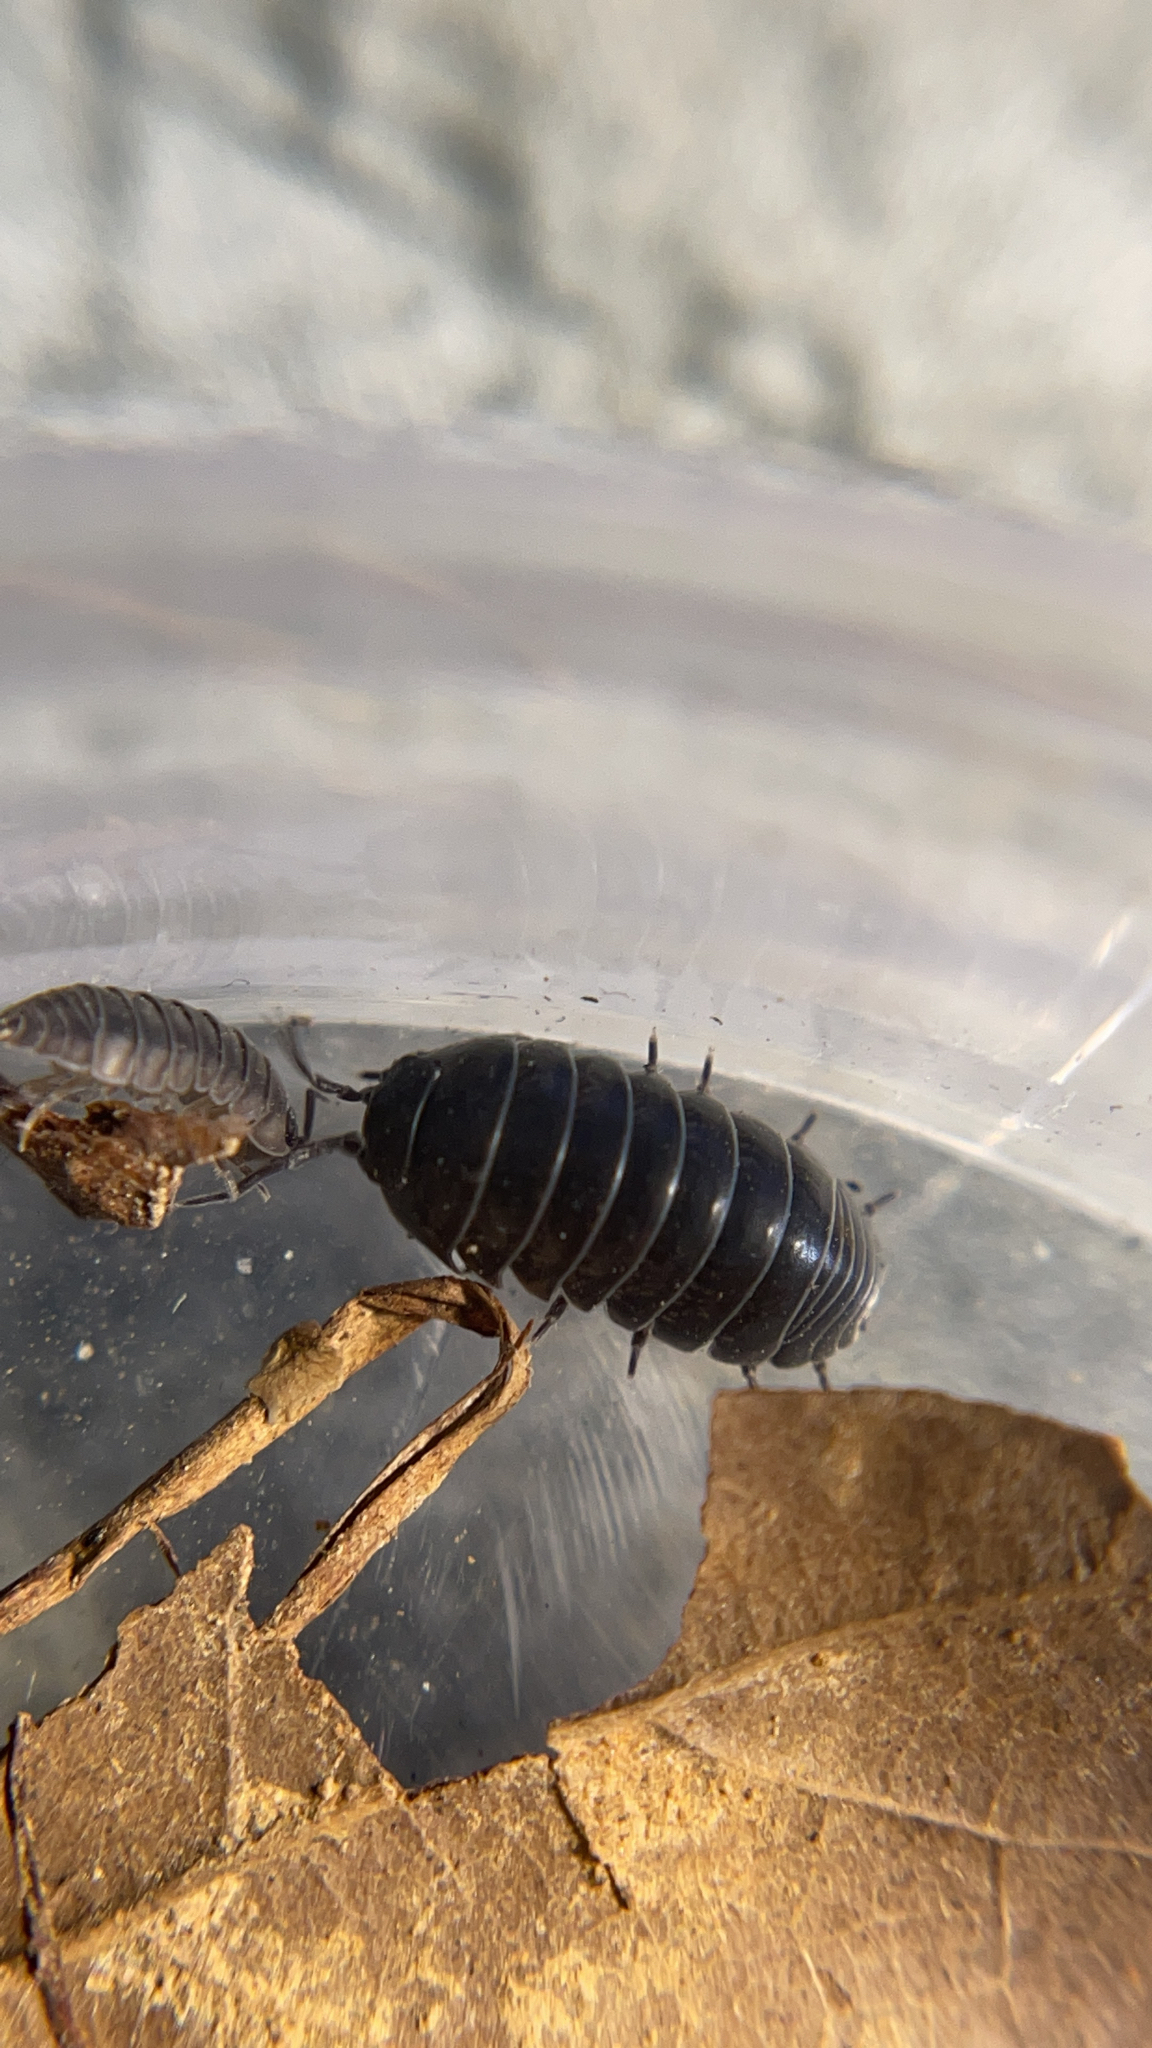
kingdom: Animalia
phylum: Arthropoda
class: Malacostraca
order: Isopoda
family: Armadillidiidae
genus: Armadillidium
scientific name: Armadillidium vulgare
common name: Common pill woodlouse
